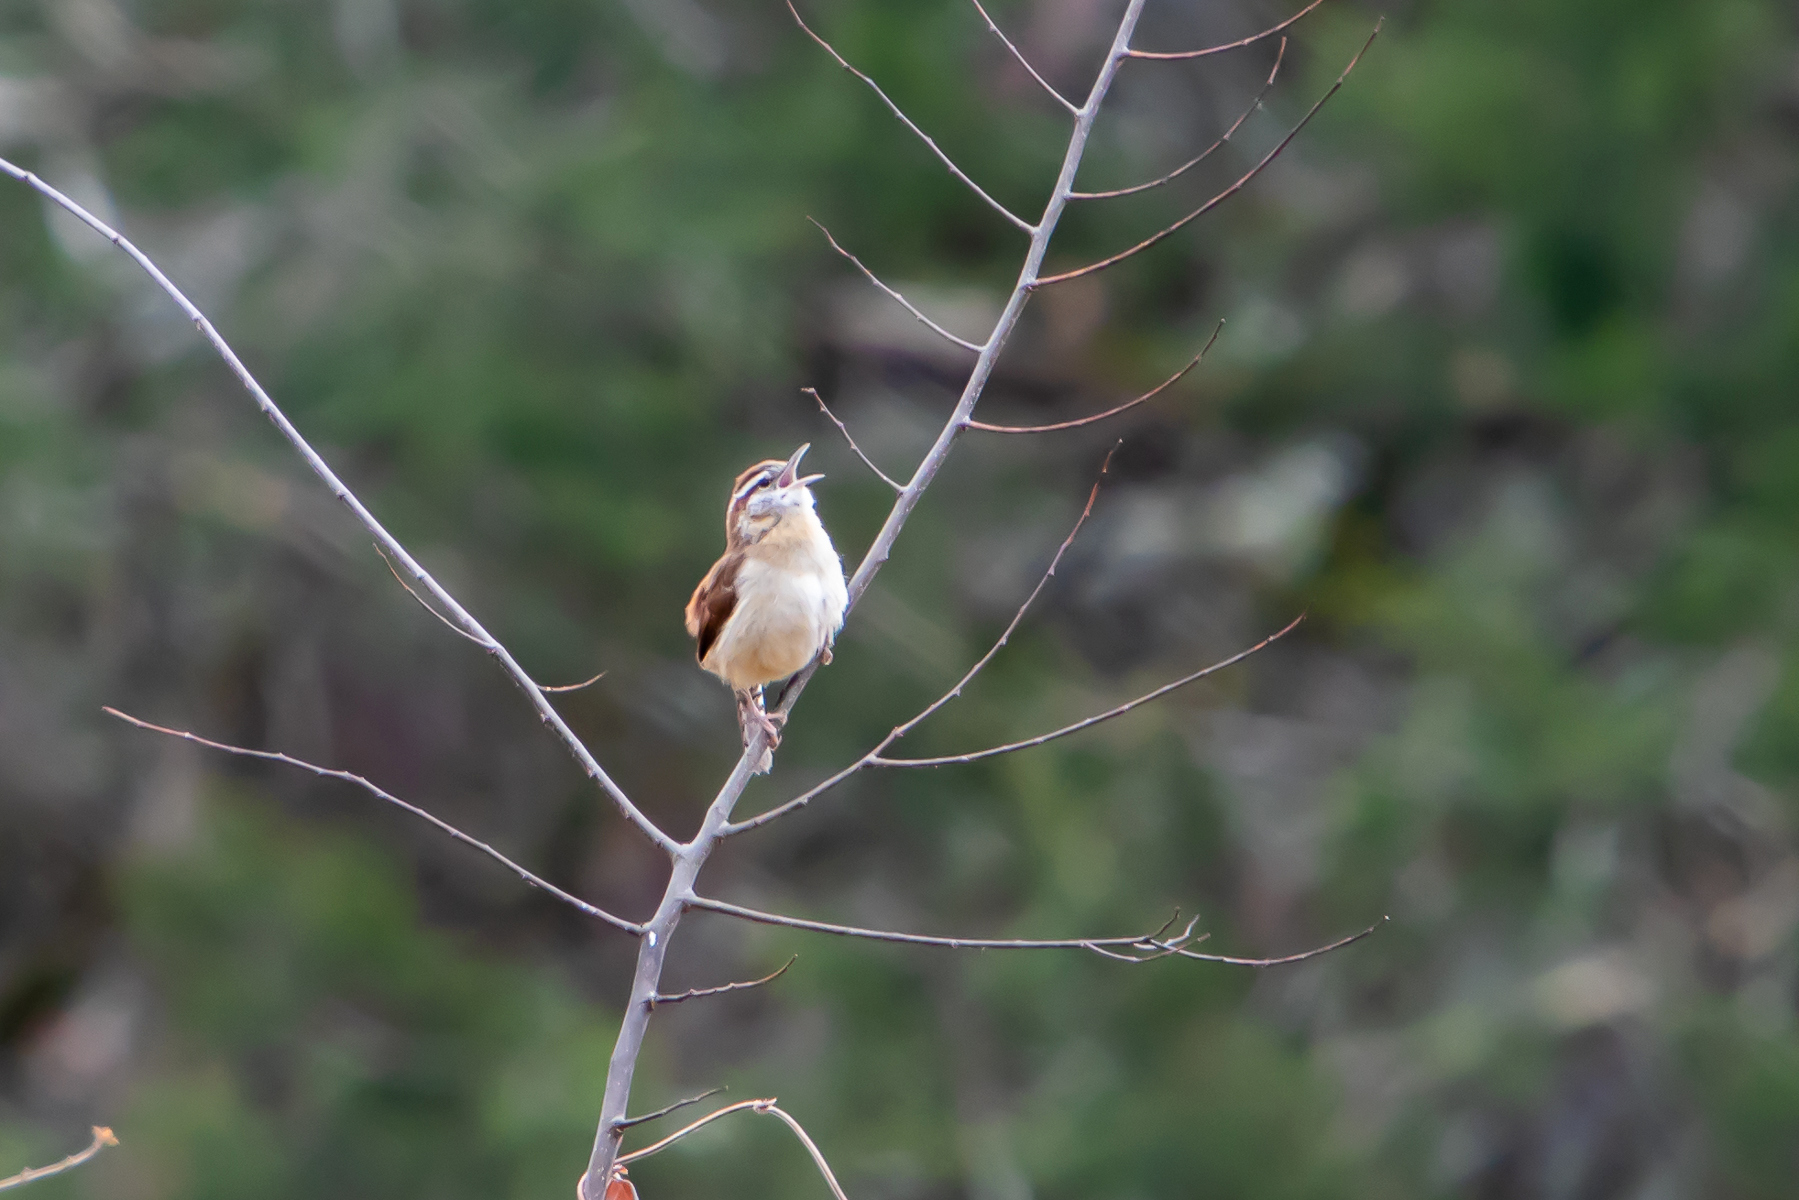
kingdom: Animalia
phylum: Chordata
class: Aves
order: Passeriformes
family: Troglodytidae
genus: Thryothorus
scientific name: Thryothorus ludovicianus
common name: Carolina wren
